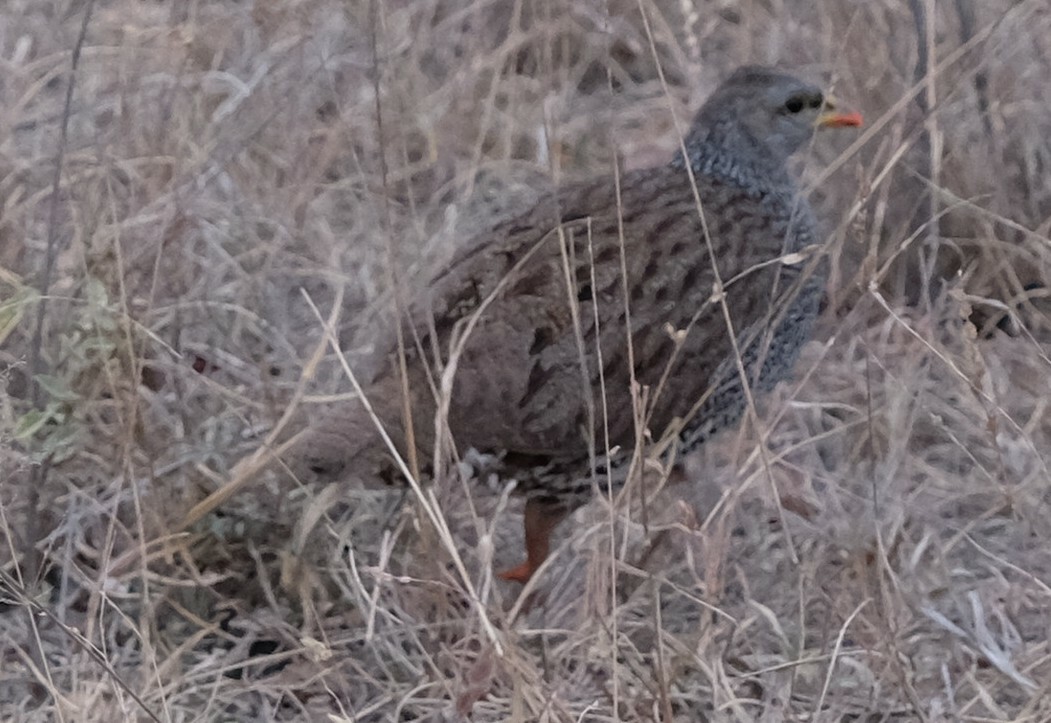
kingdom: Animalia
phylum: Chordata
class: Aves
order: Galliformes
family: Phasianidae
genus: Pternistis
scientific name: Pternistis natalensis
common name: Natal spurfowl
